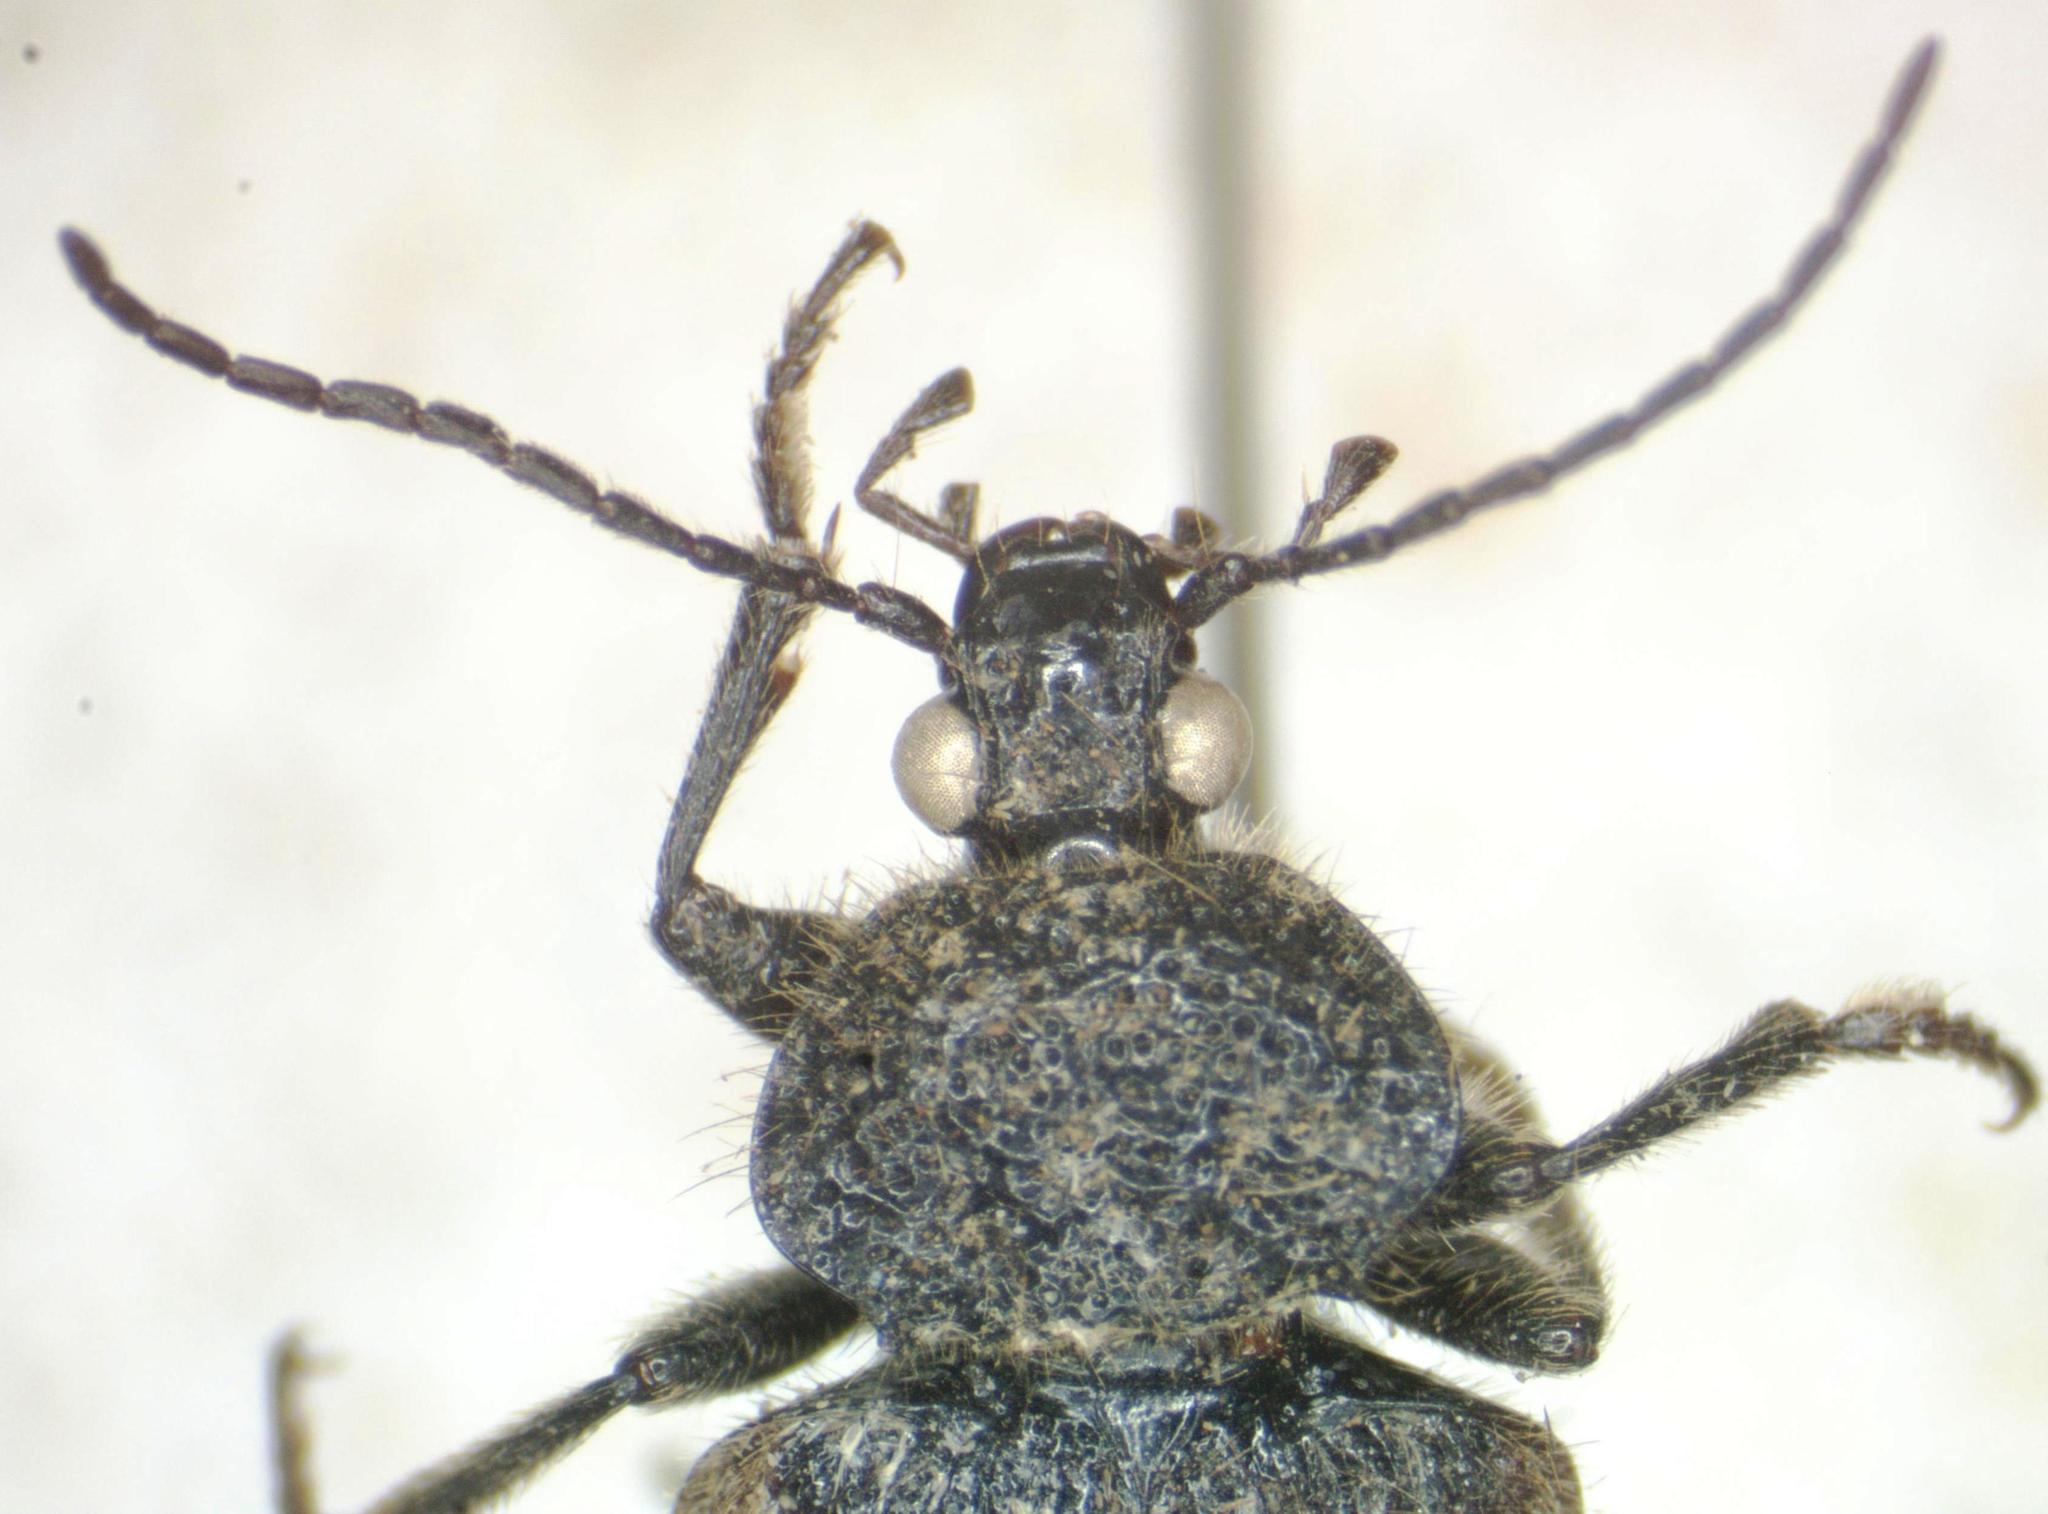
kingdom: Animalia
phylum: Arthropoda
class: Insecta
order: Coleoptera
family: Carabidae
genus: Panagaeus
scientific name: Panagaeus quadrisignatus
